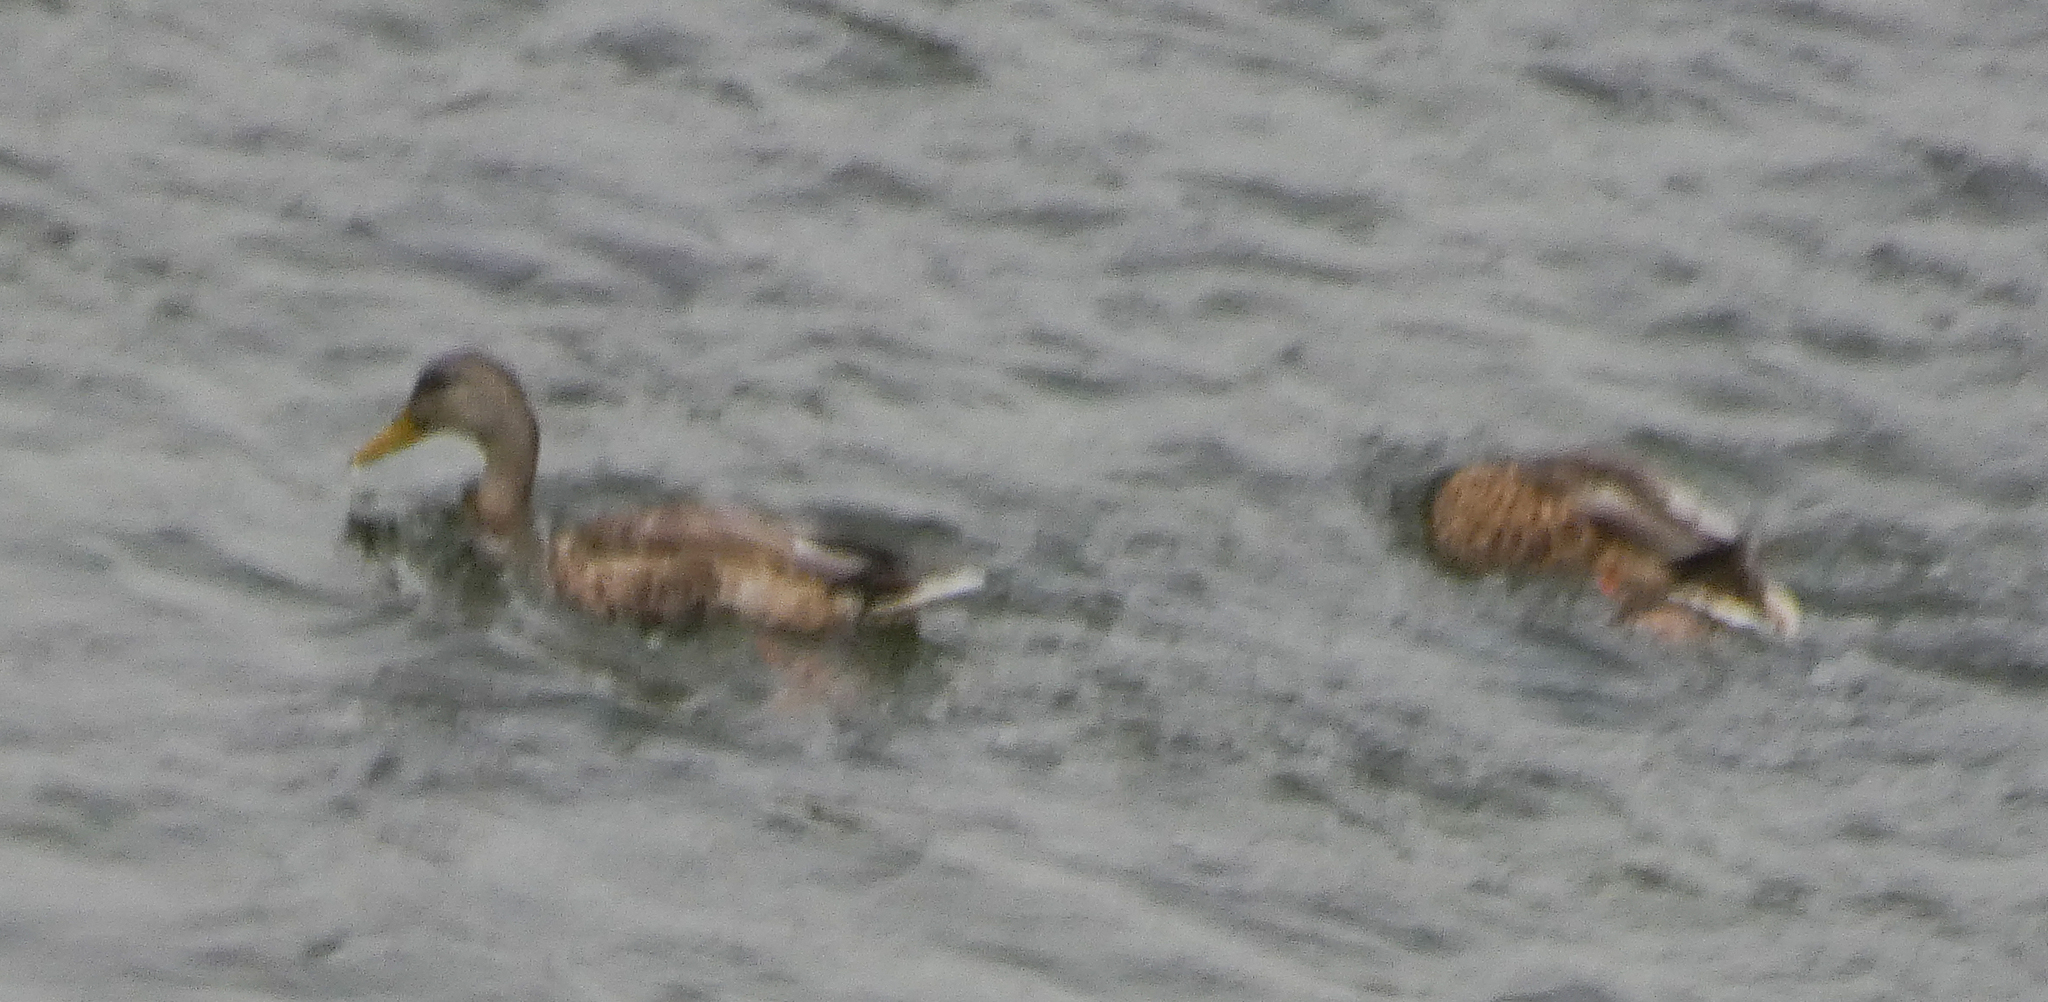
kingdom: Animalia
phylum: Chordata
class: Aves
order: Anseriformes
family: Anatidae
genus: Anas
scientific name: Anas platyrhynchos
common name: Mallard
